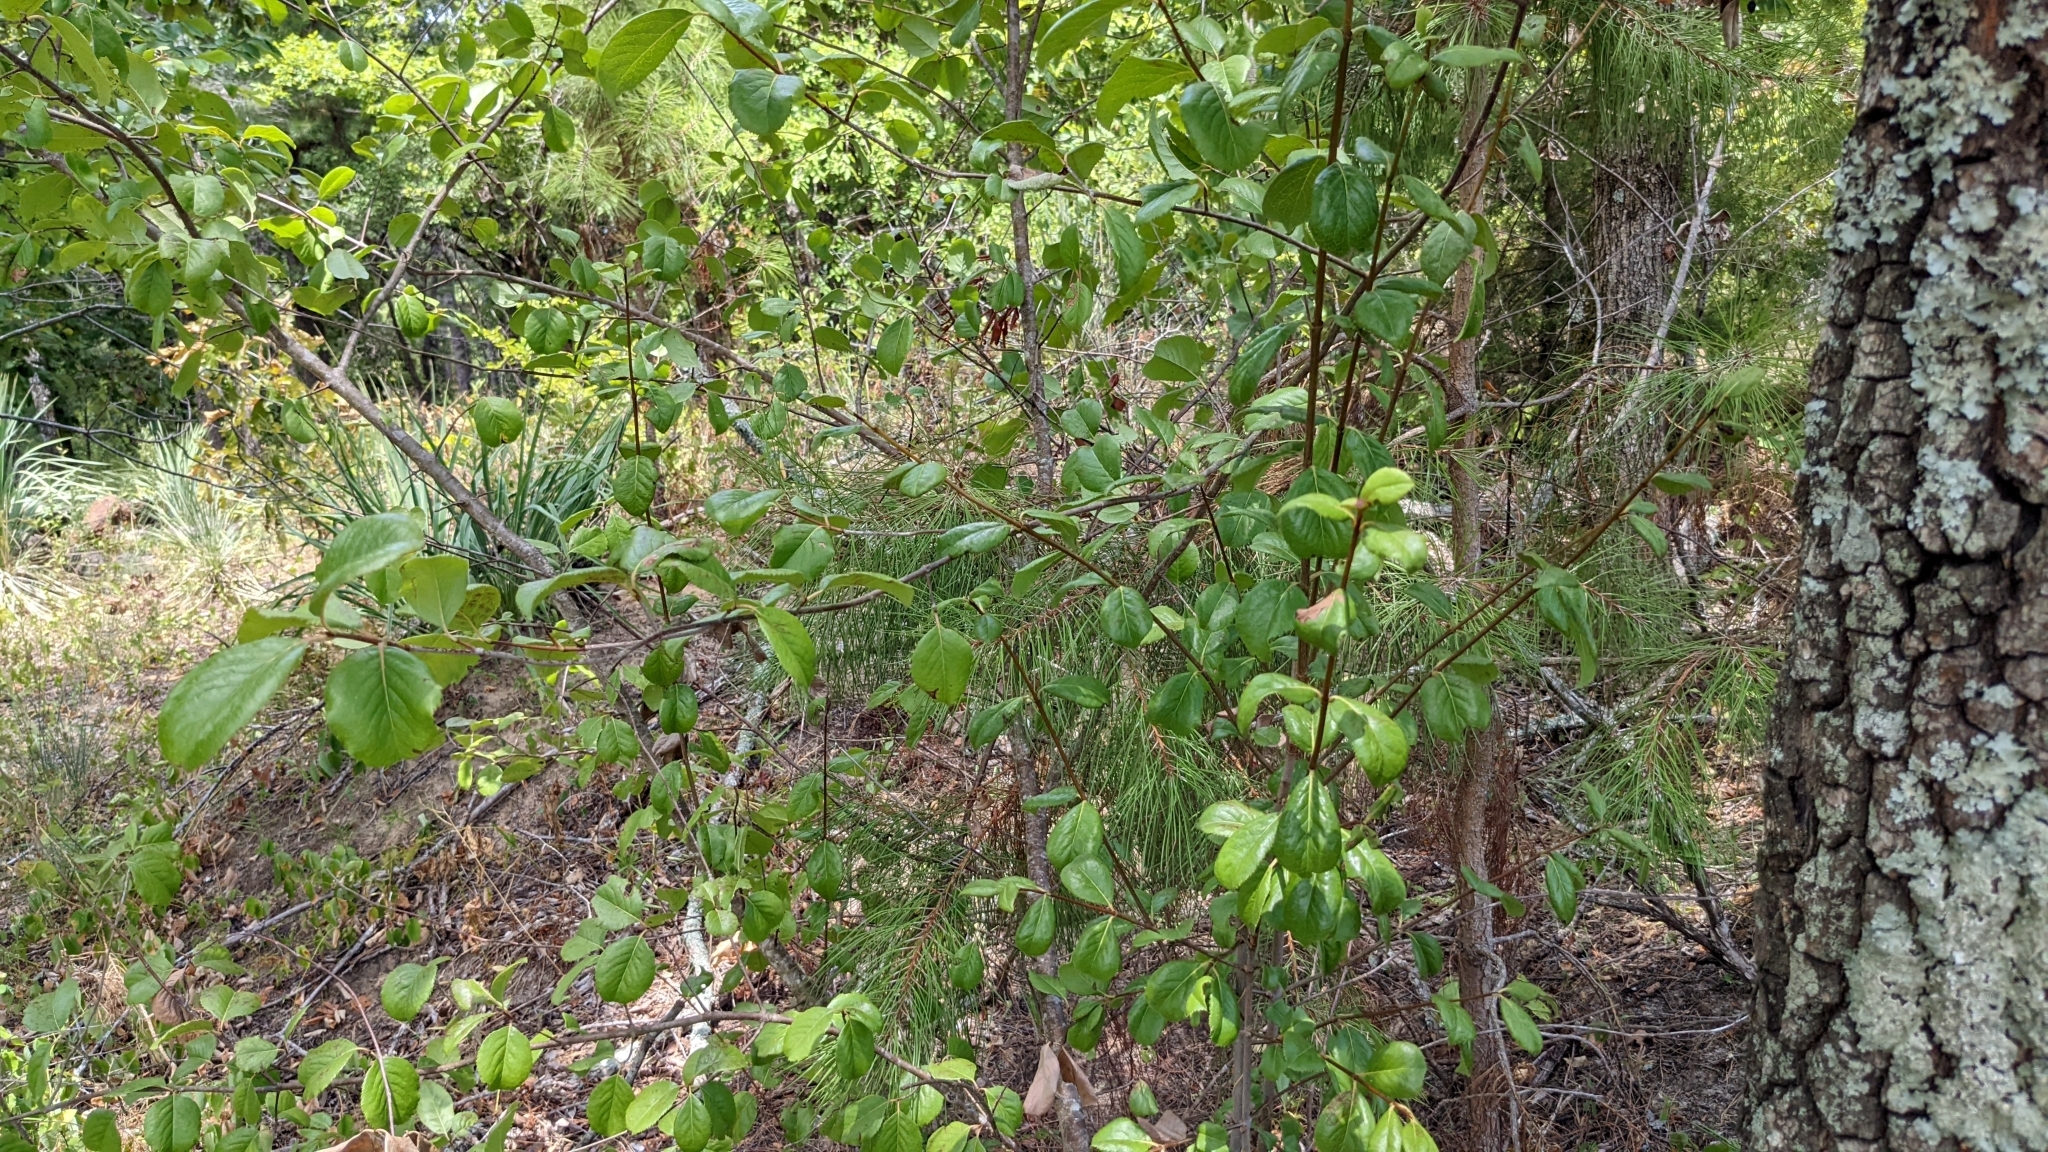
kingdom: Plantae
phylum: Tracheophyta
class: Magnoliopsida
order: Dipsacales
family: Viburnaceae
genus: Viburnum
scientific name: Viburnum rufidulum
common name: Blue haw
